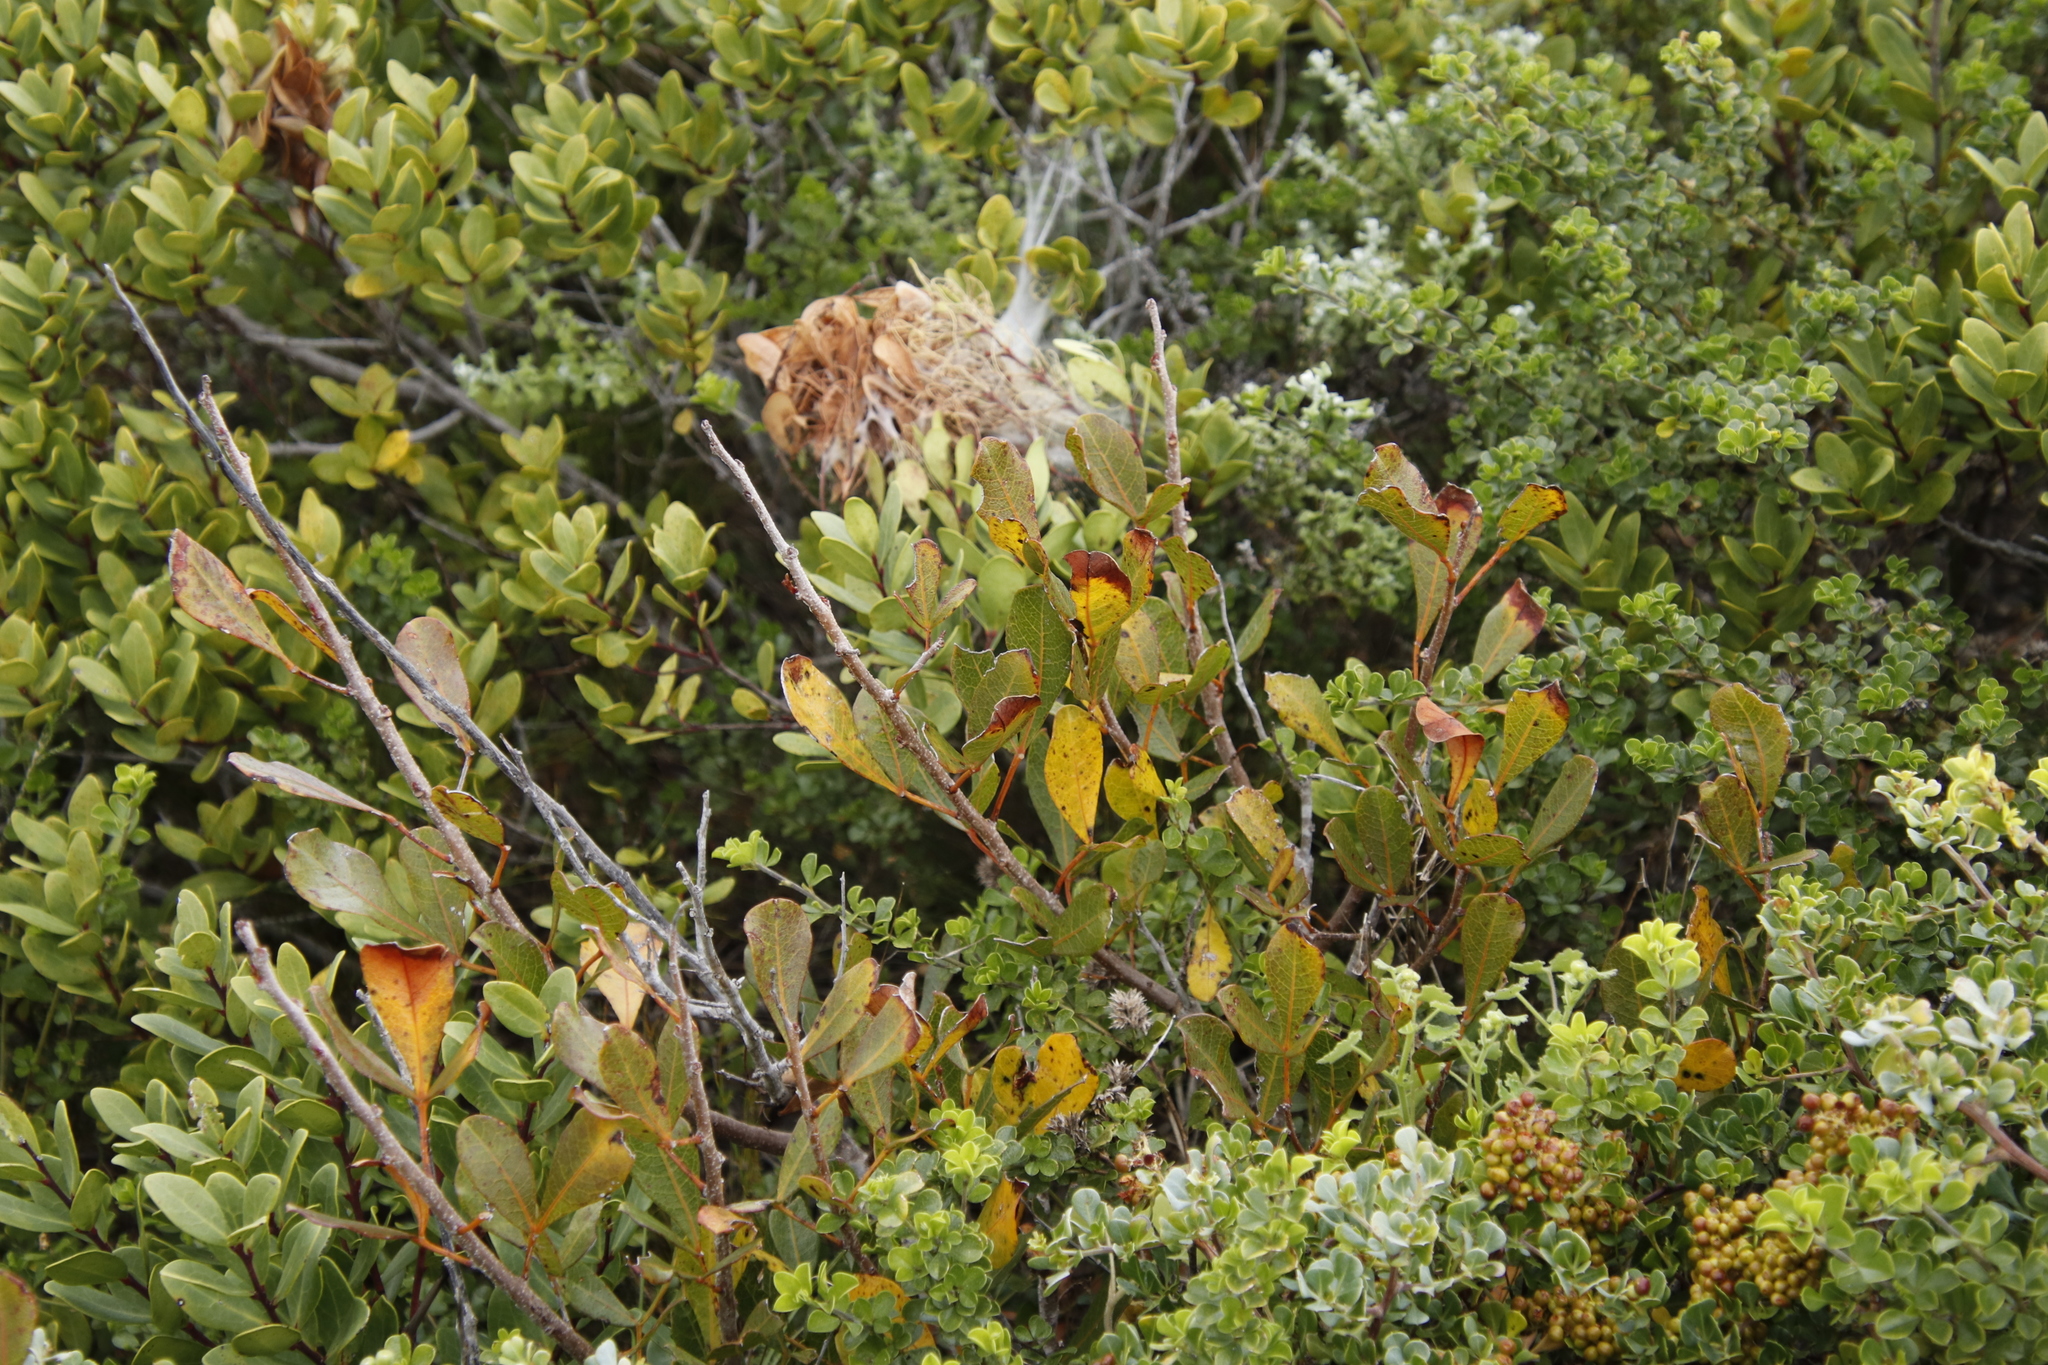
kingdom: Plantae
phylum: Tracheophyta
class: Magnoliopsida
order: Sapindales
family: Anacardiaceae
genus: Searsia
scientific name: Searsia laevigata
